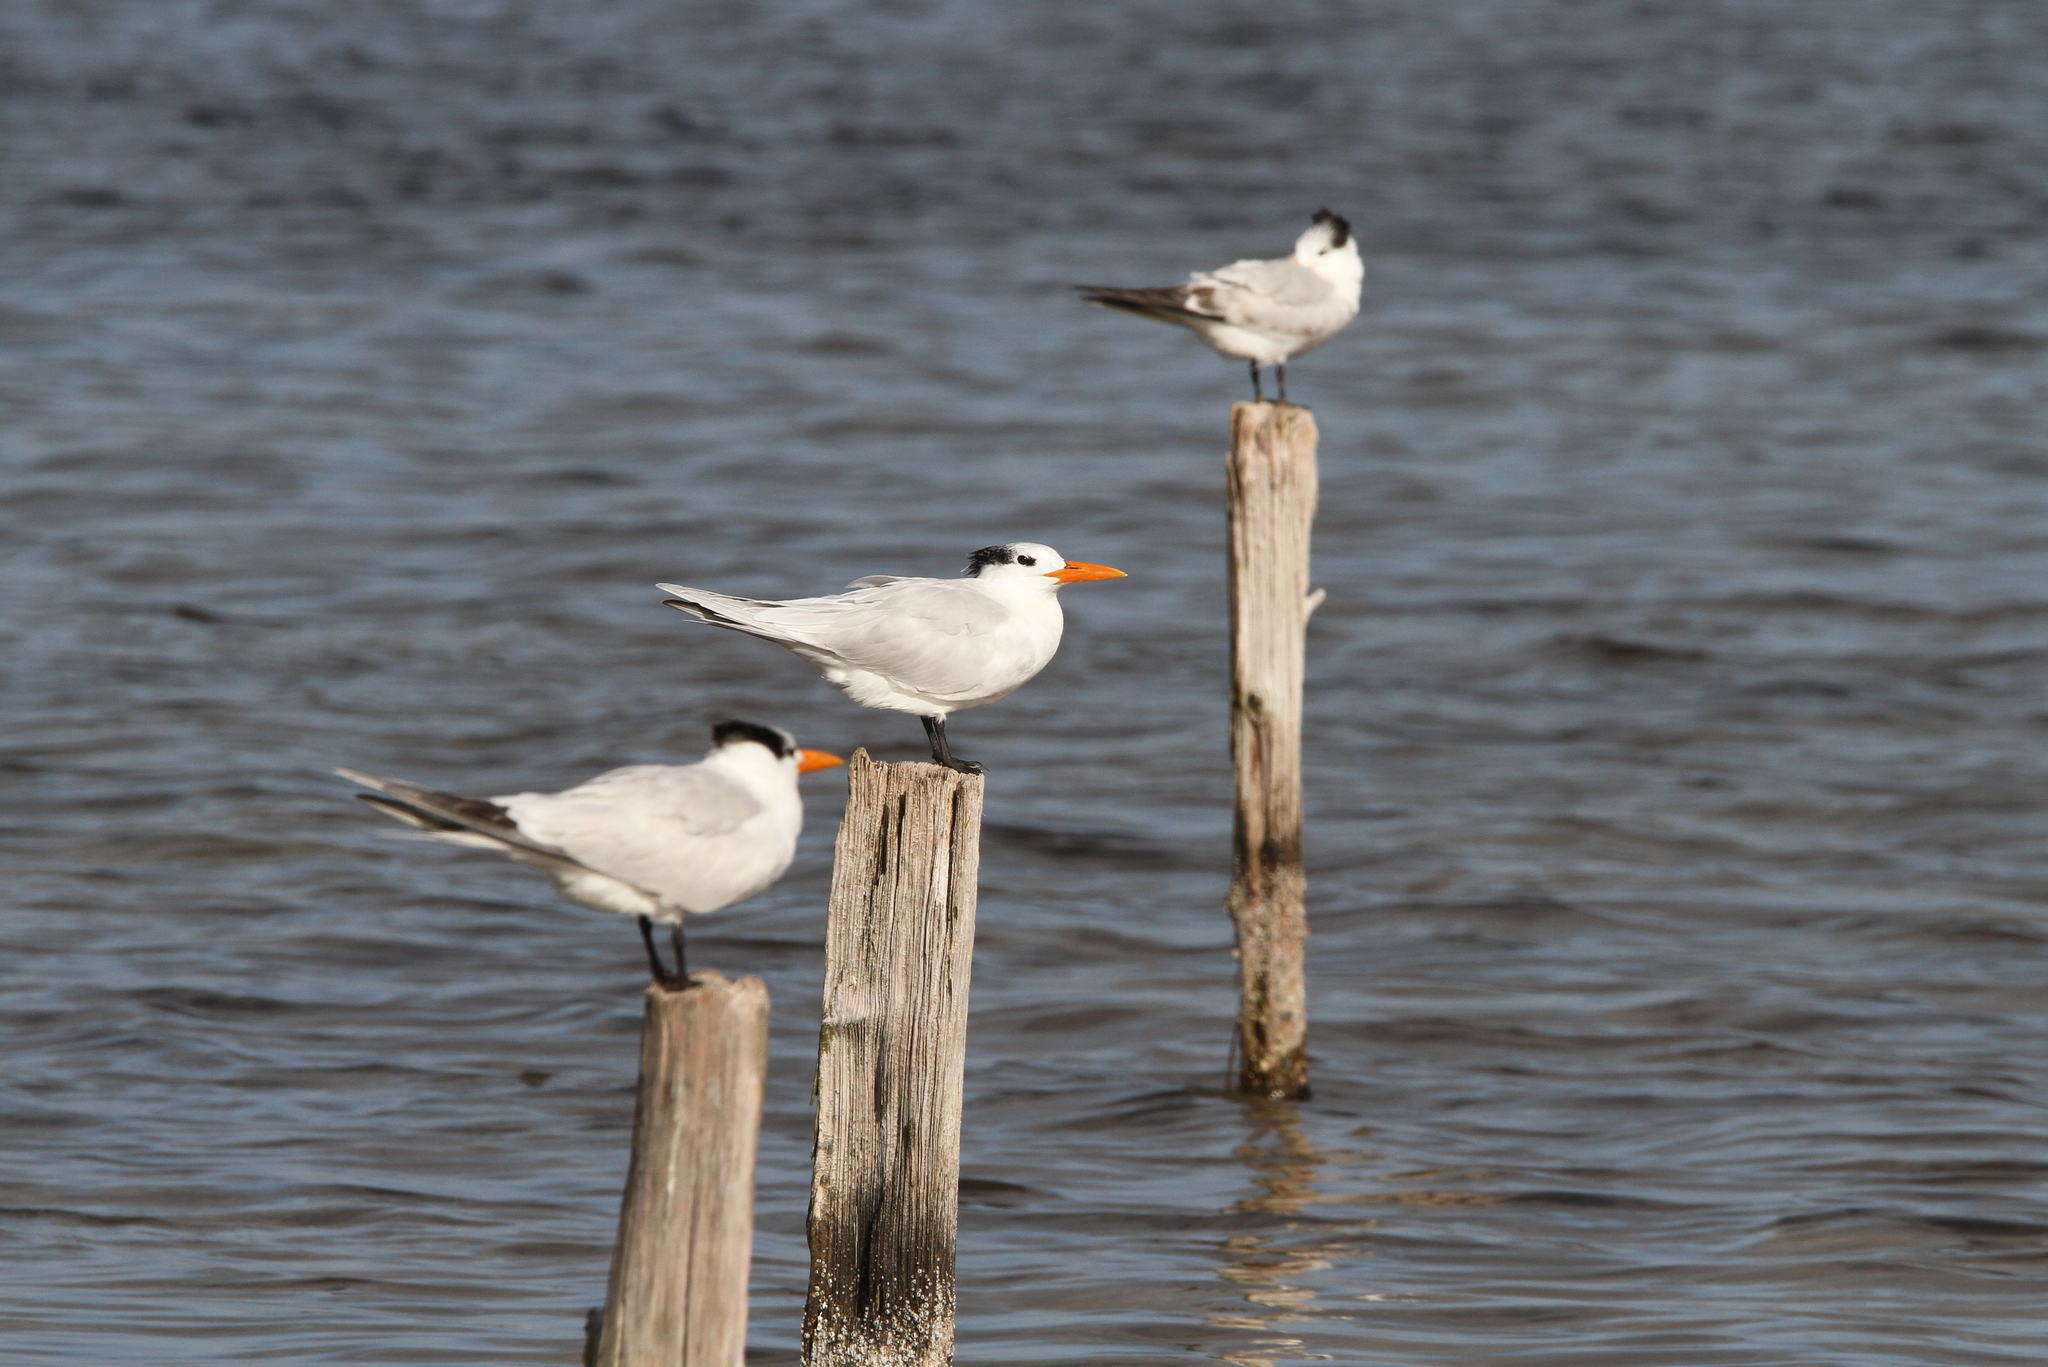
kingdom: Animalia
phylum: Chordata
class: Aves
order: Charadriiformes
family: Laridae
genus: Thalasseus
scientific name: Thalasseus maximus
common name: Royal tern
